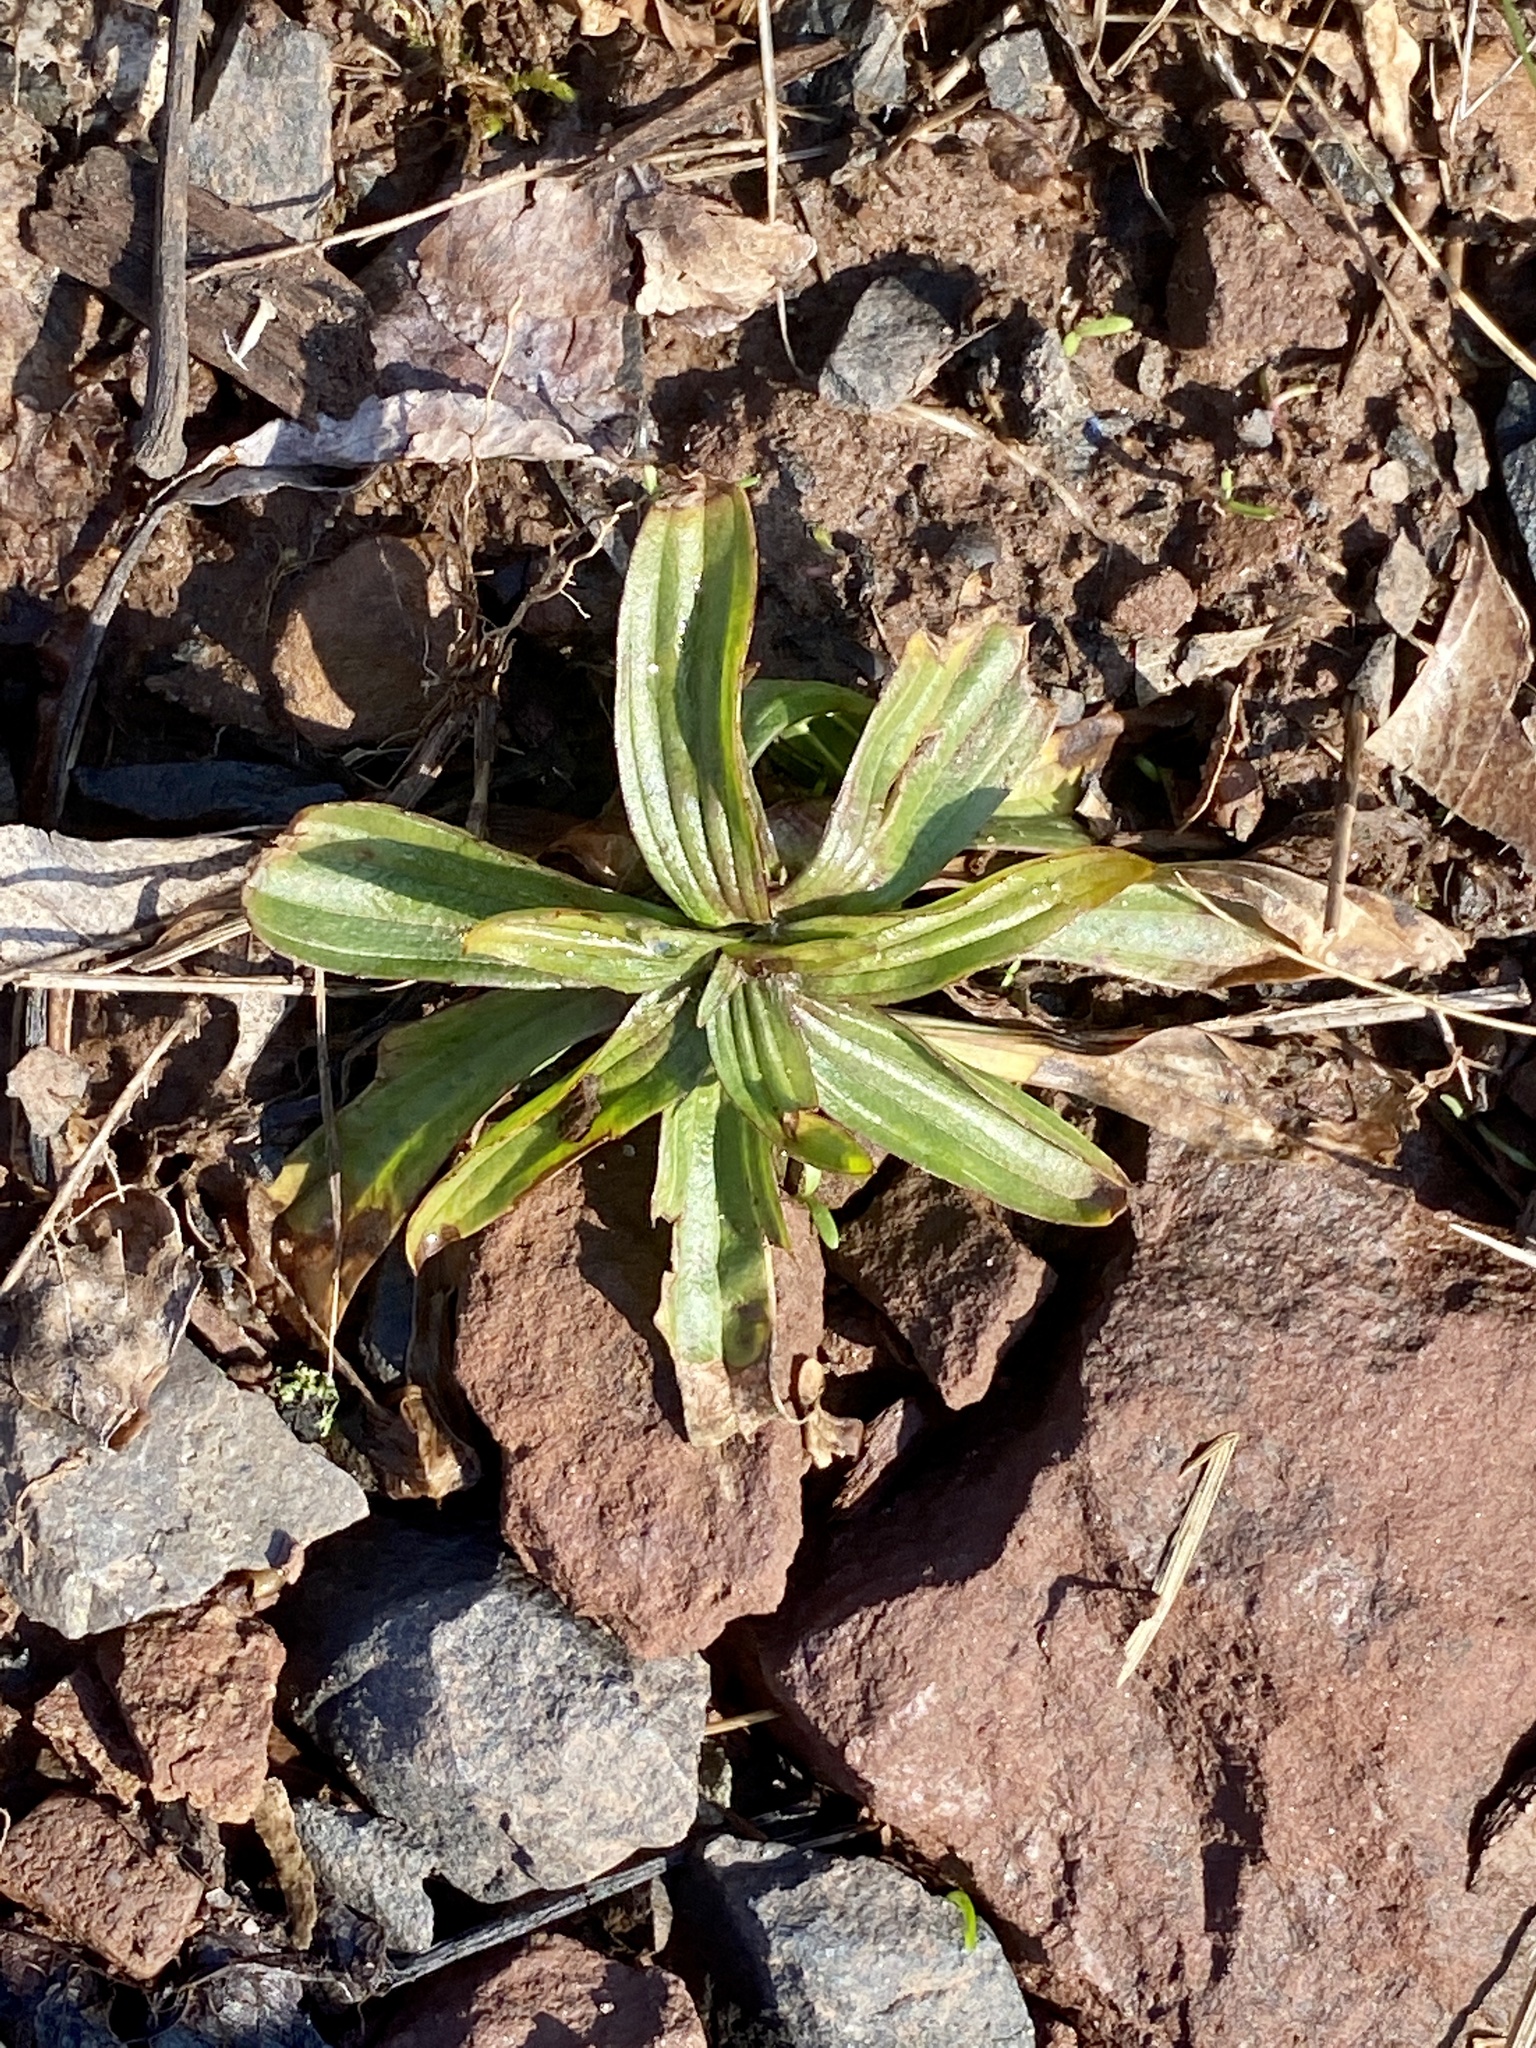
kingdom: Plantae
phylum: Tracheophyta
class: Magnoliopsida
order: Lamiales
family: Plantaginaceae
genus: Plantago
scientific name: Plantago lanceolata
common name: Ribwort plantain
